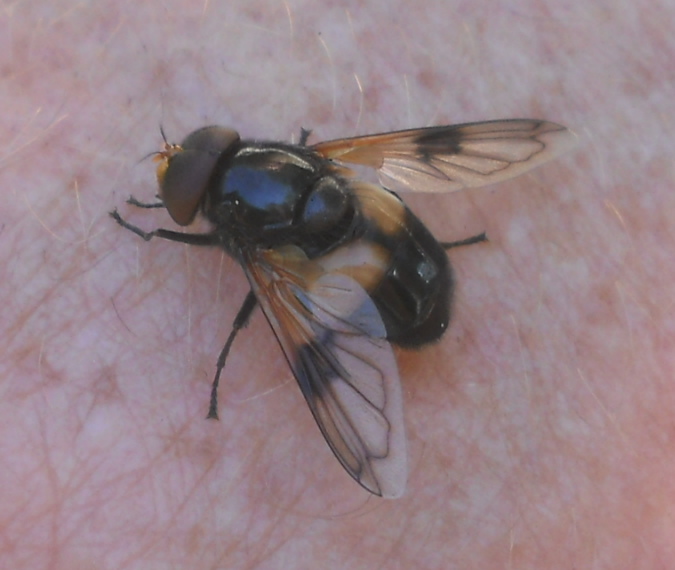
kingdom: Animalia
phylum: Arthropoda
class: Insecta
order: Diptera
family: Syrphidae
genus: Volucella
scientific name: Volucella pellucens
